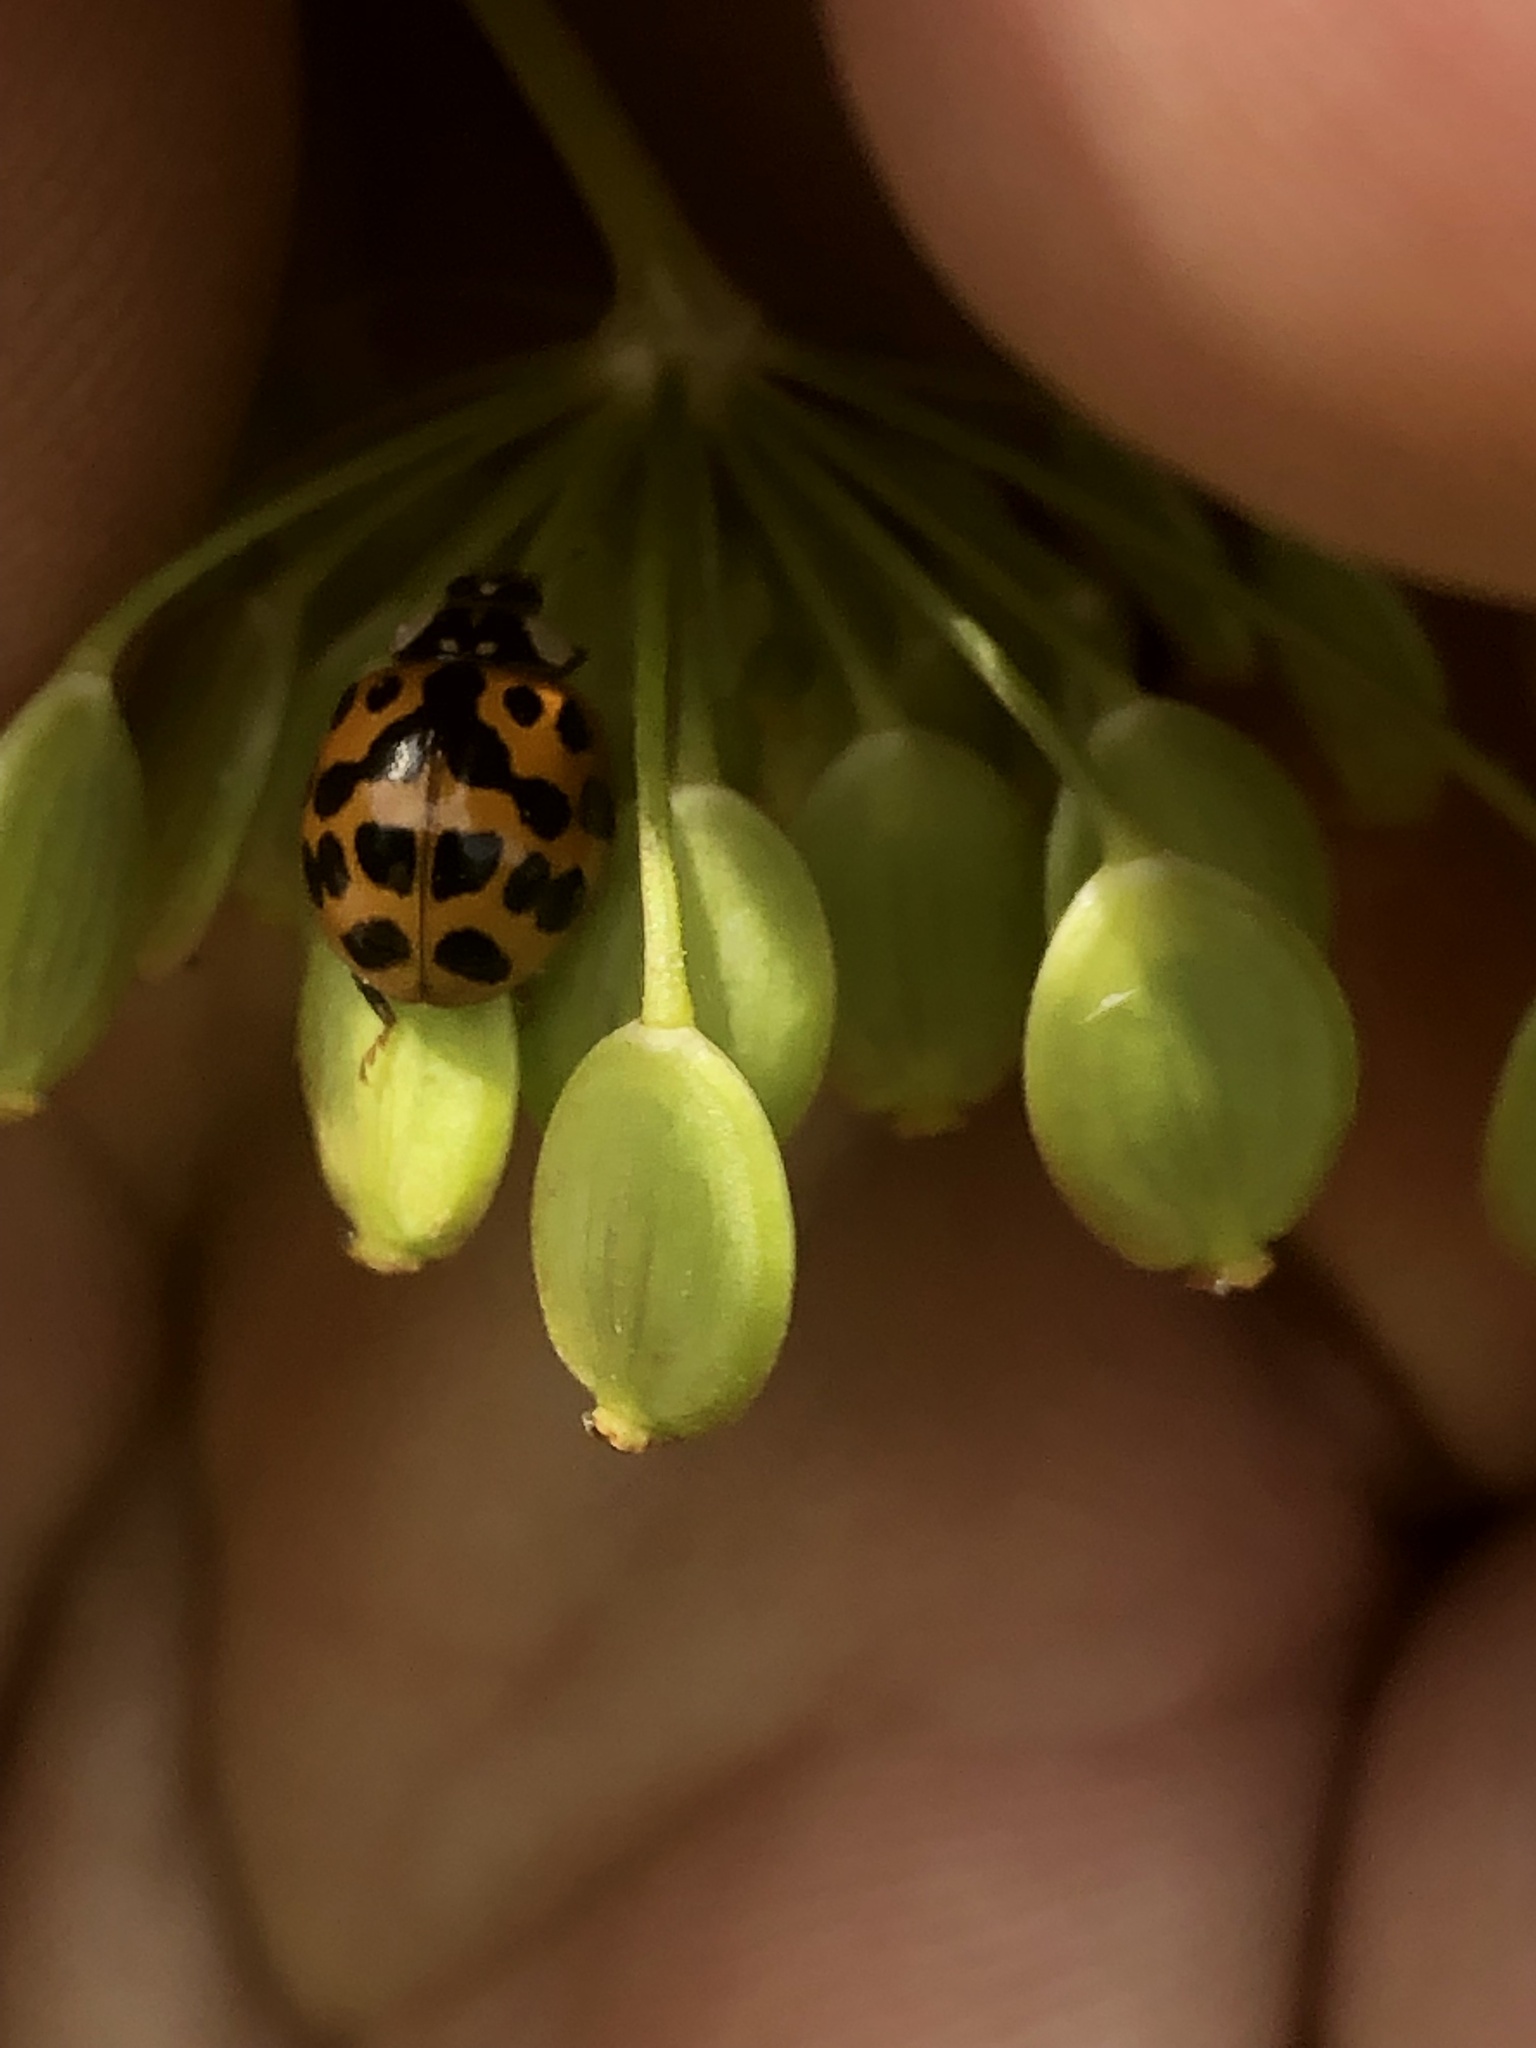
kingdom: Animalia
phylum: Arthropoda
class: Insecta
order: Coleoptera
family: Coccinellidae
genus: Harmonia
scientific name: Harmonia axyridis
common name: Harlequin ladybird
